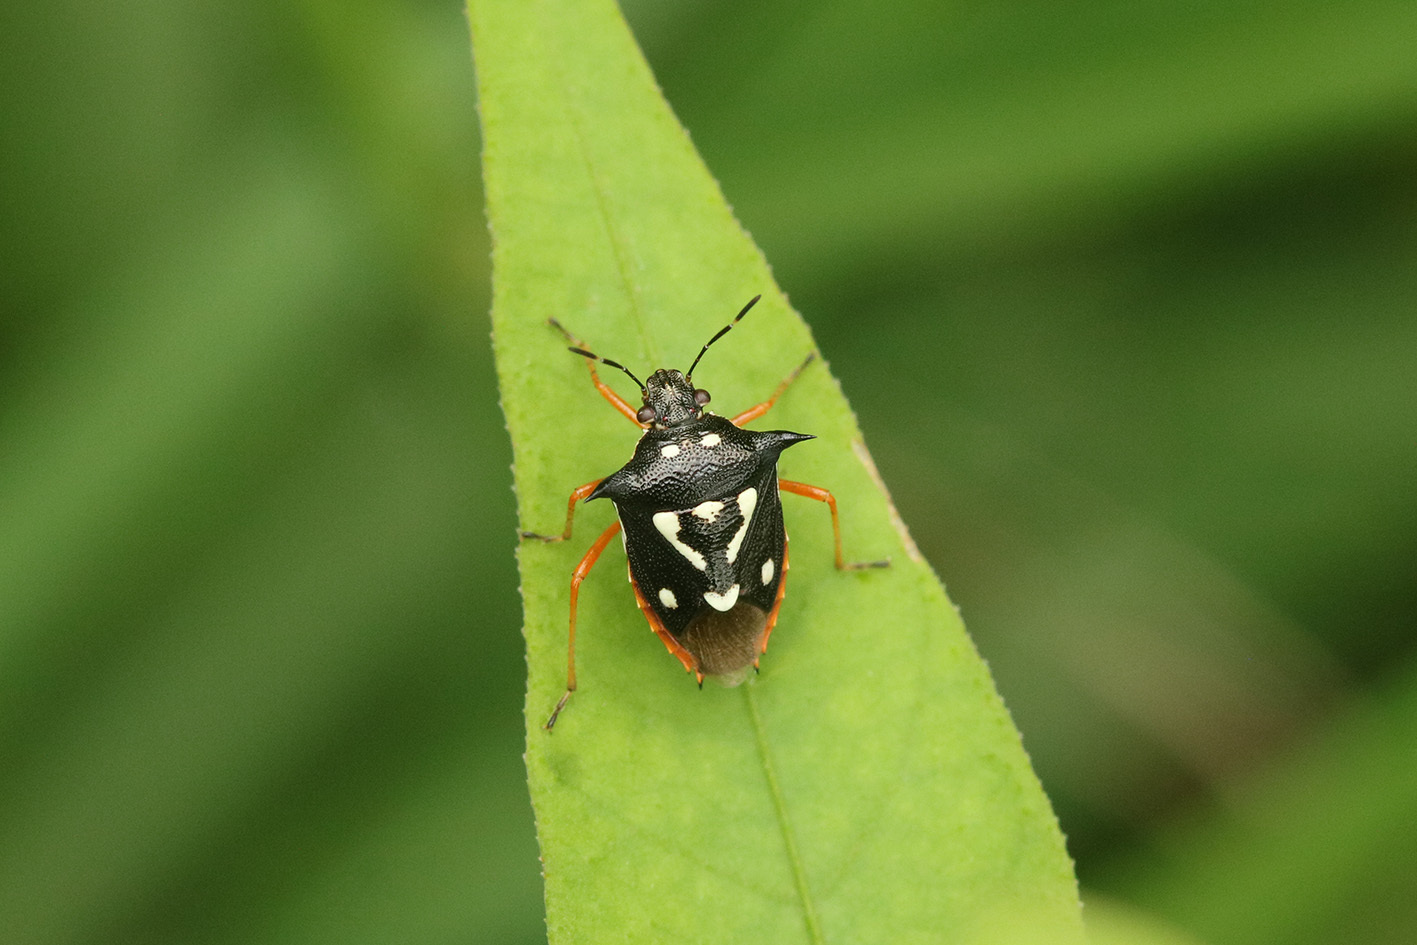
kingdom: Animalia
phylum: Arthropoda
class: Insecta
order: Hemiptera
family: Pentatomidae
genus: Mormidea
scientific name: Mormidea v-luteum
